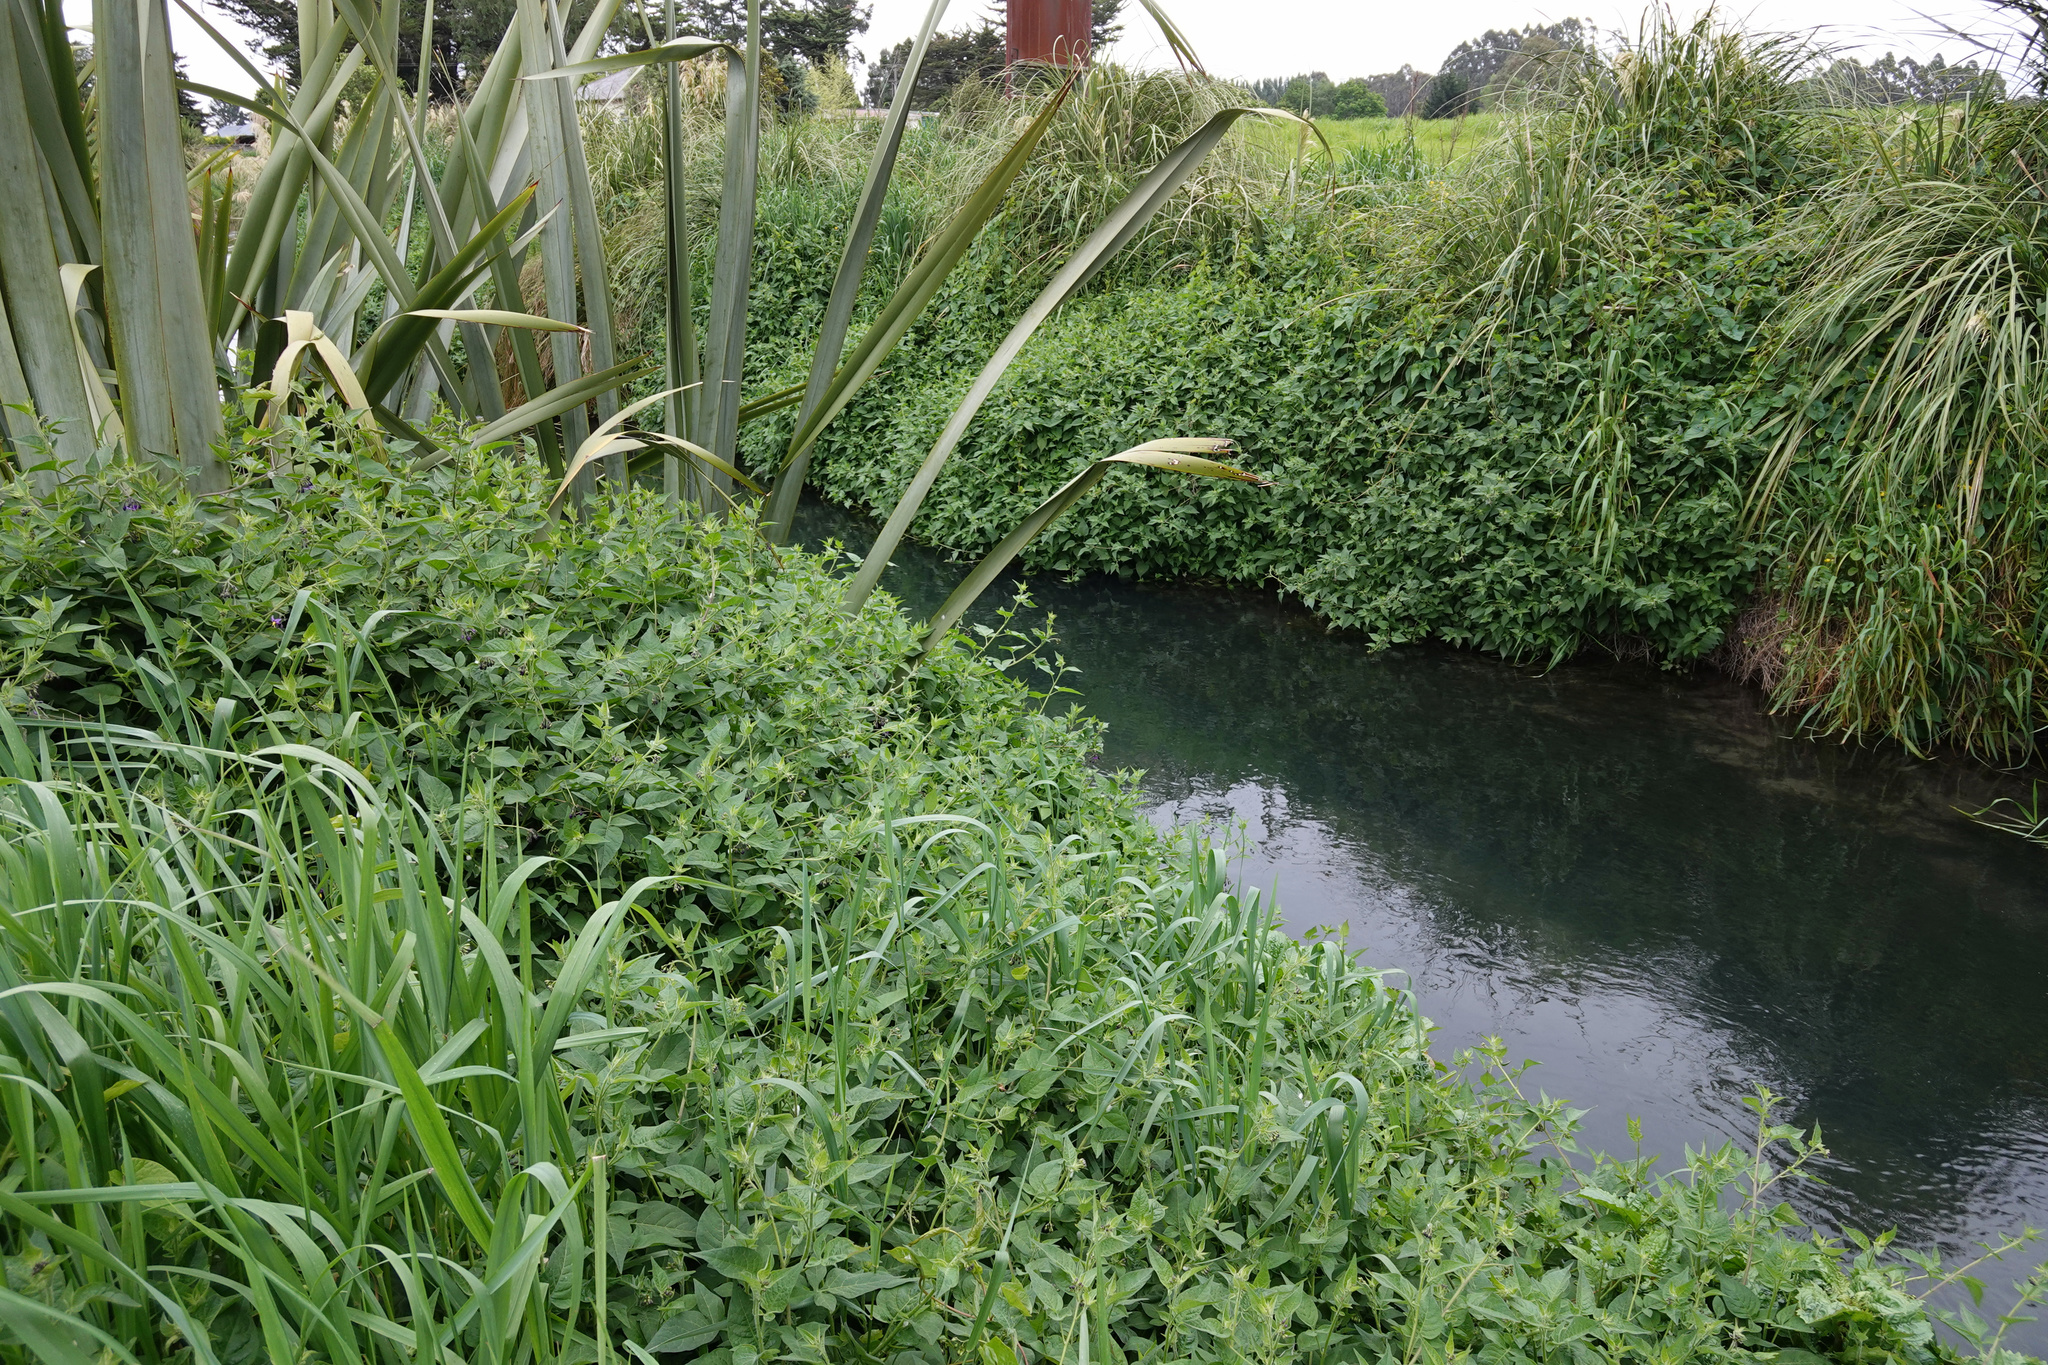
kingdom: Plantae
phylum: Tracheophyta
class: Magnoliopsida
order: Solanales
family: Solanaceae
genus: Solanum
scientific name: Solanum dulcamara
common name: Climbing nightshade
